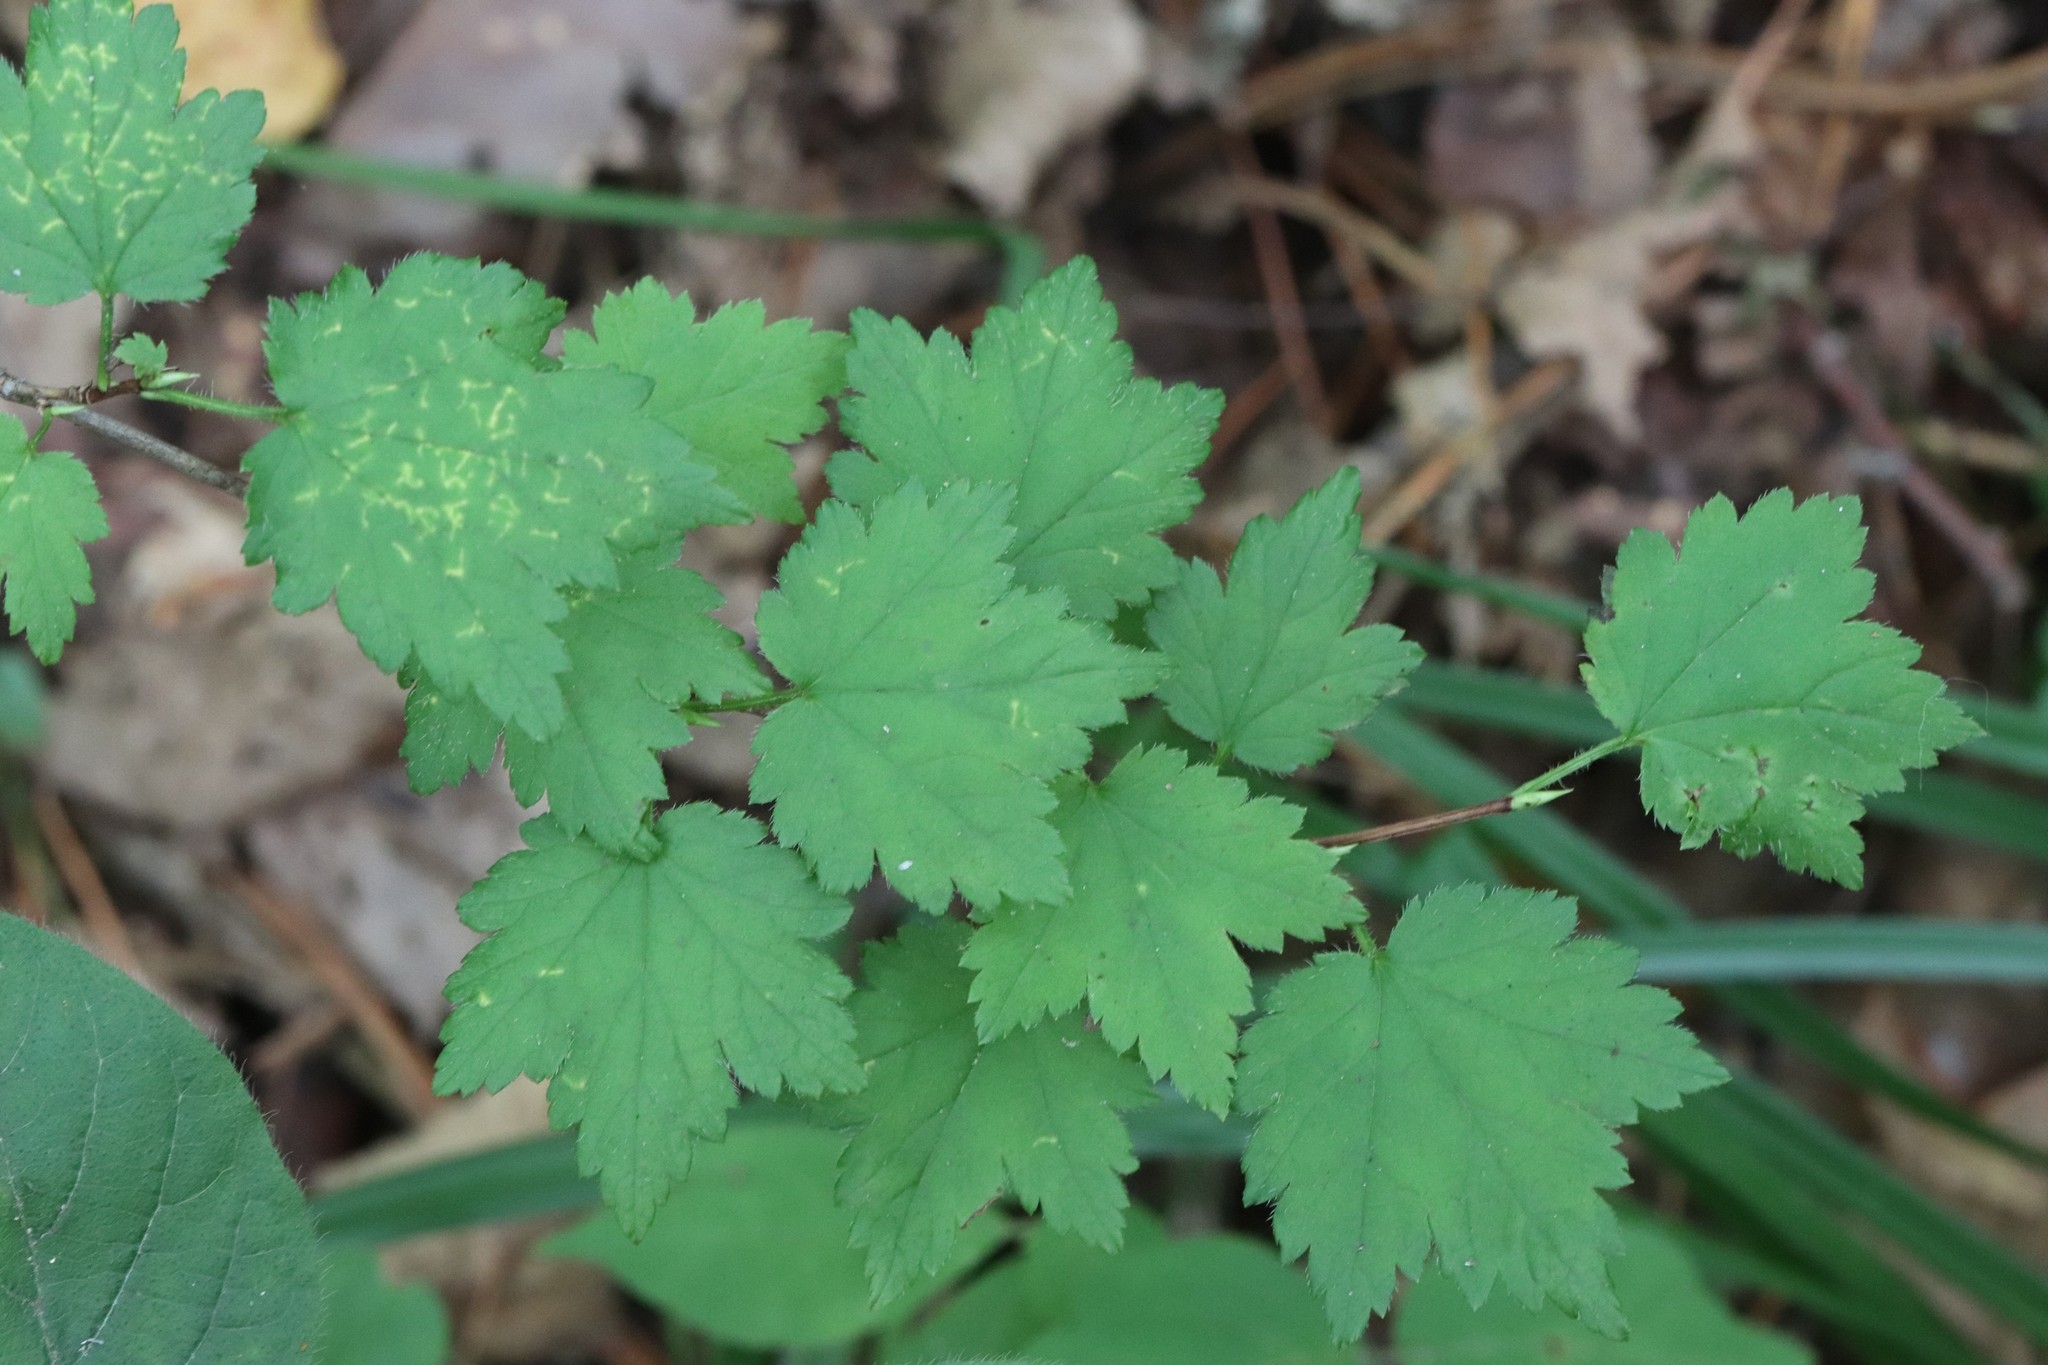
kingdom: Plantae
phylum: Tracheophyta
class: Magnoliopsida
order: Saxifragales
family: Grossulariaceae
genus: Ribes
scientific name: Ribes maximoviczianum
